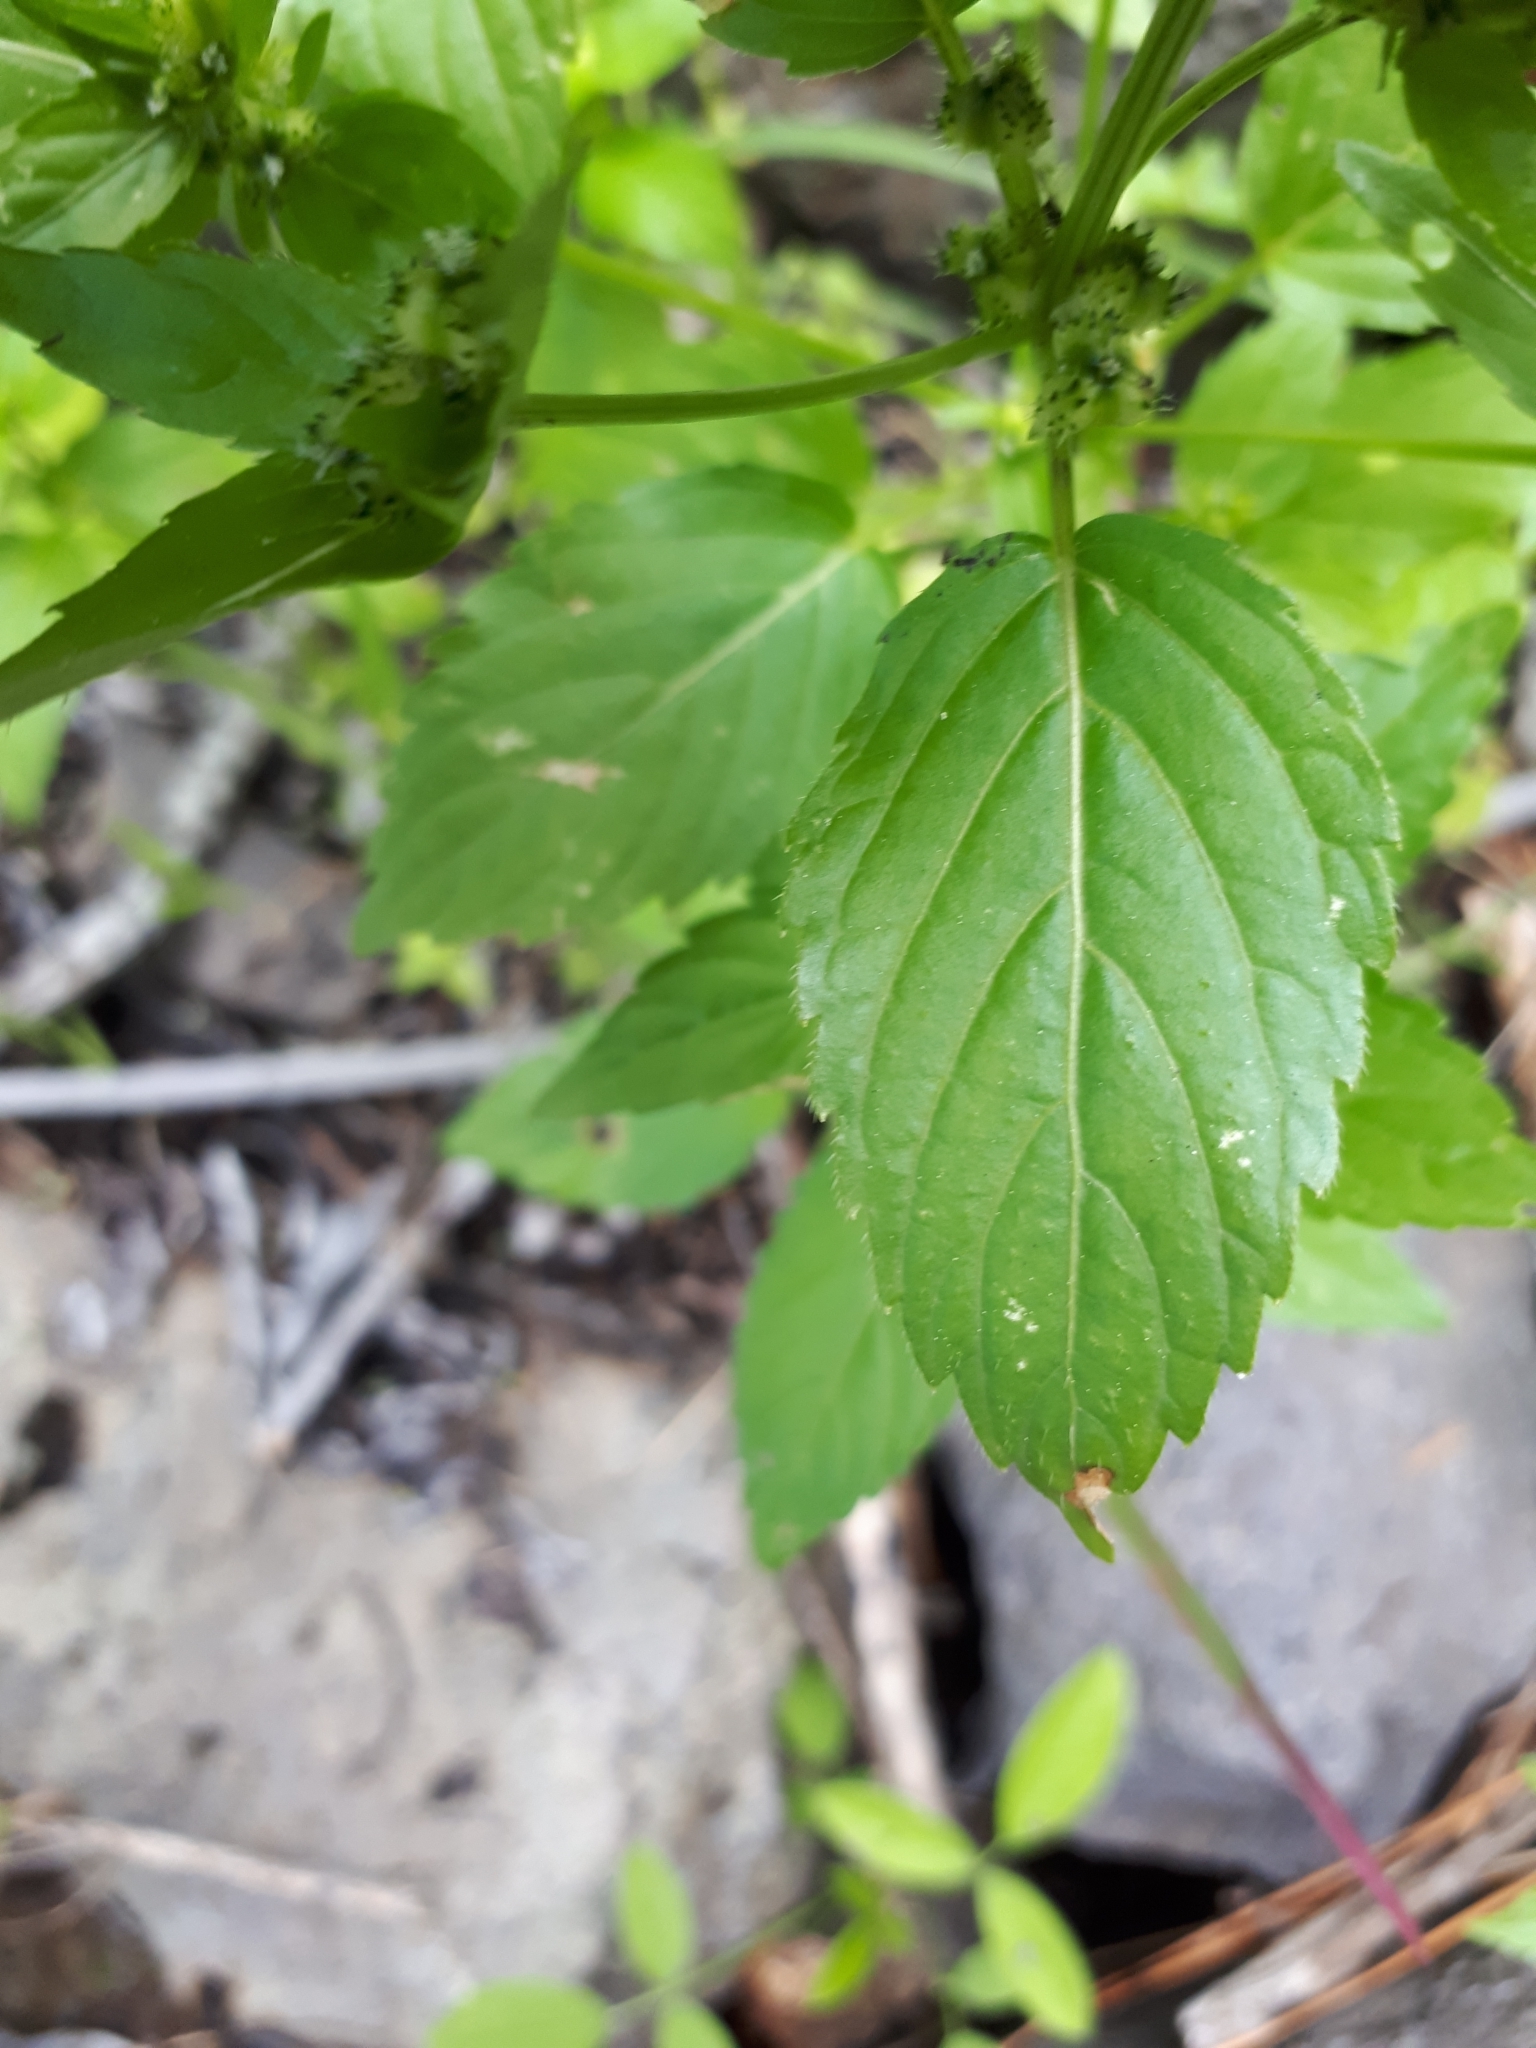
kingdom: Plantae
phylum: Tracheophyta
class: Magnoliopsida
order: Malpighiales
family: Euphorbiaceae
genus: Mercurialis
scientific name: Mercurialis annua
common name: Annual mercury
